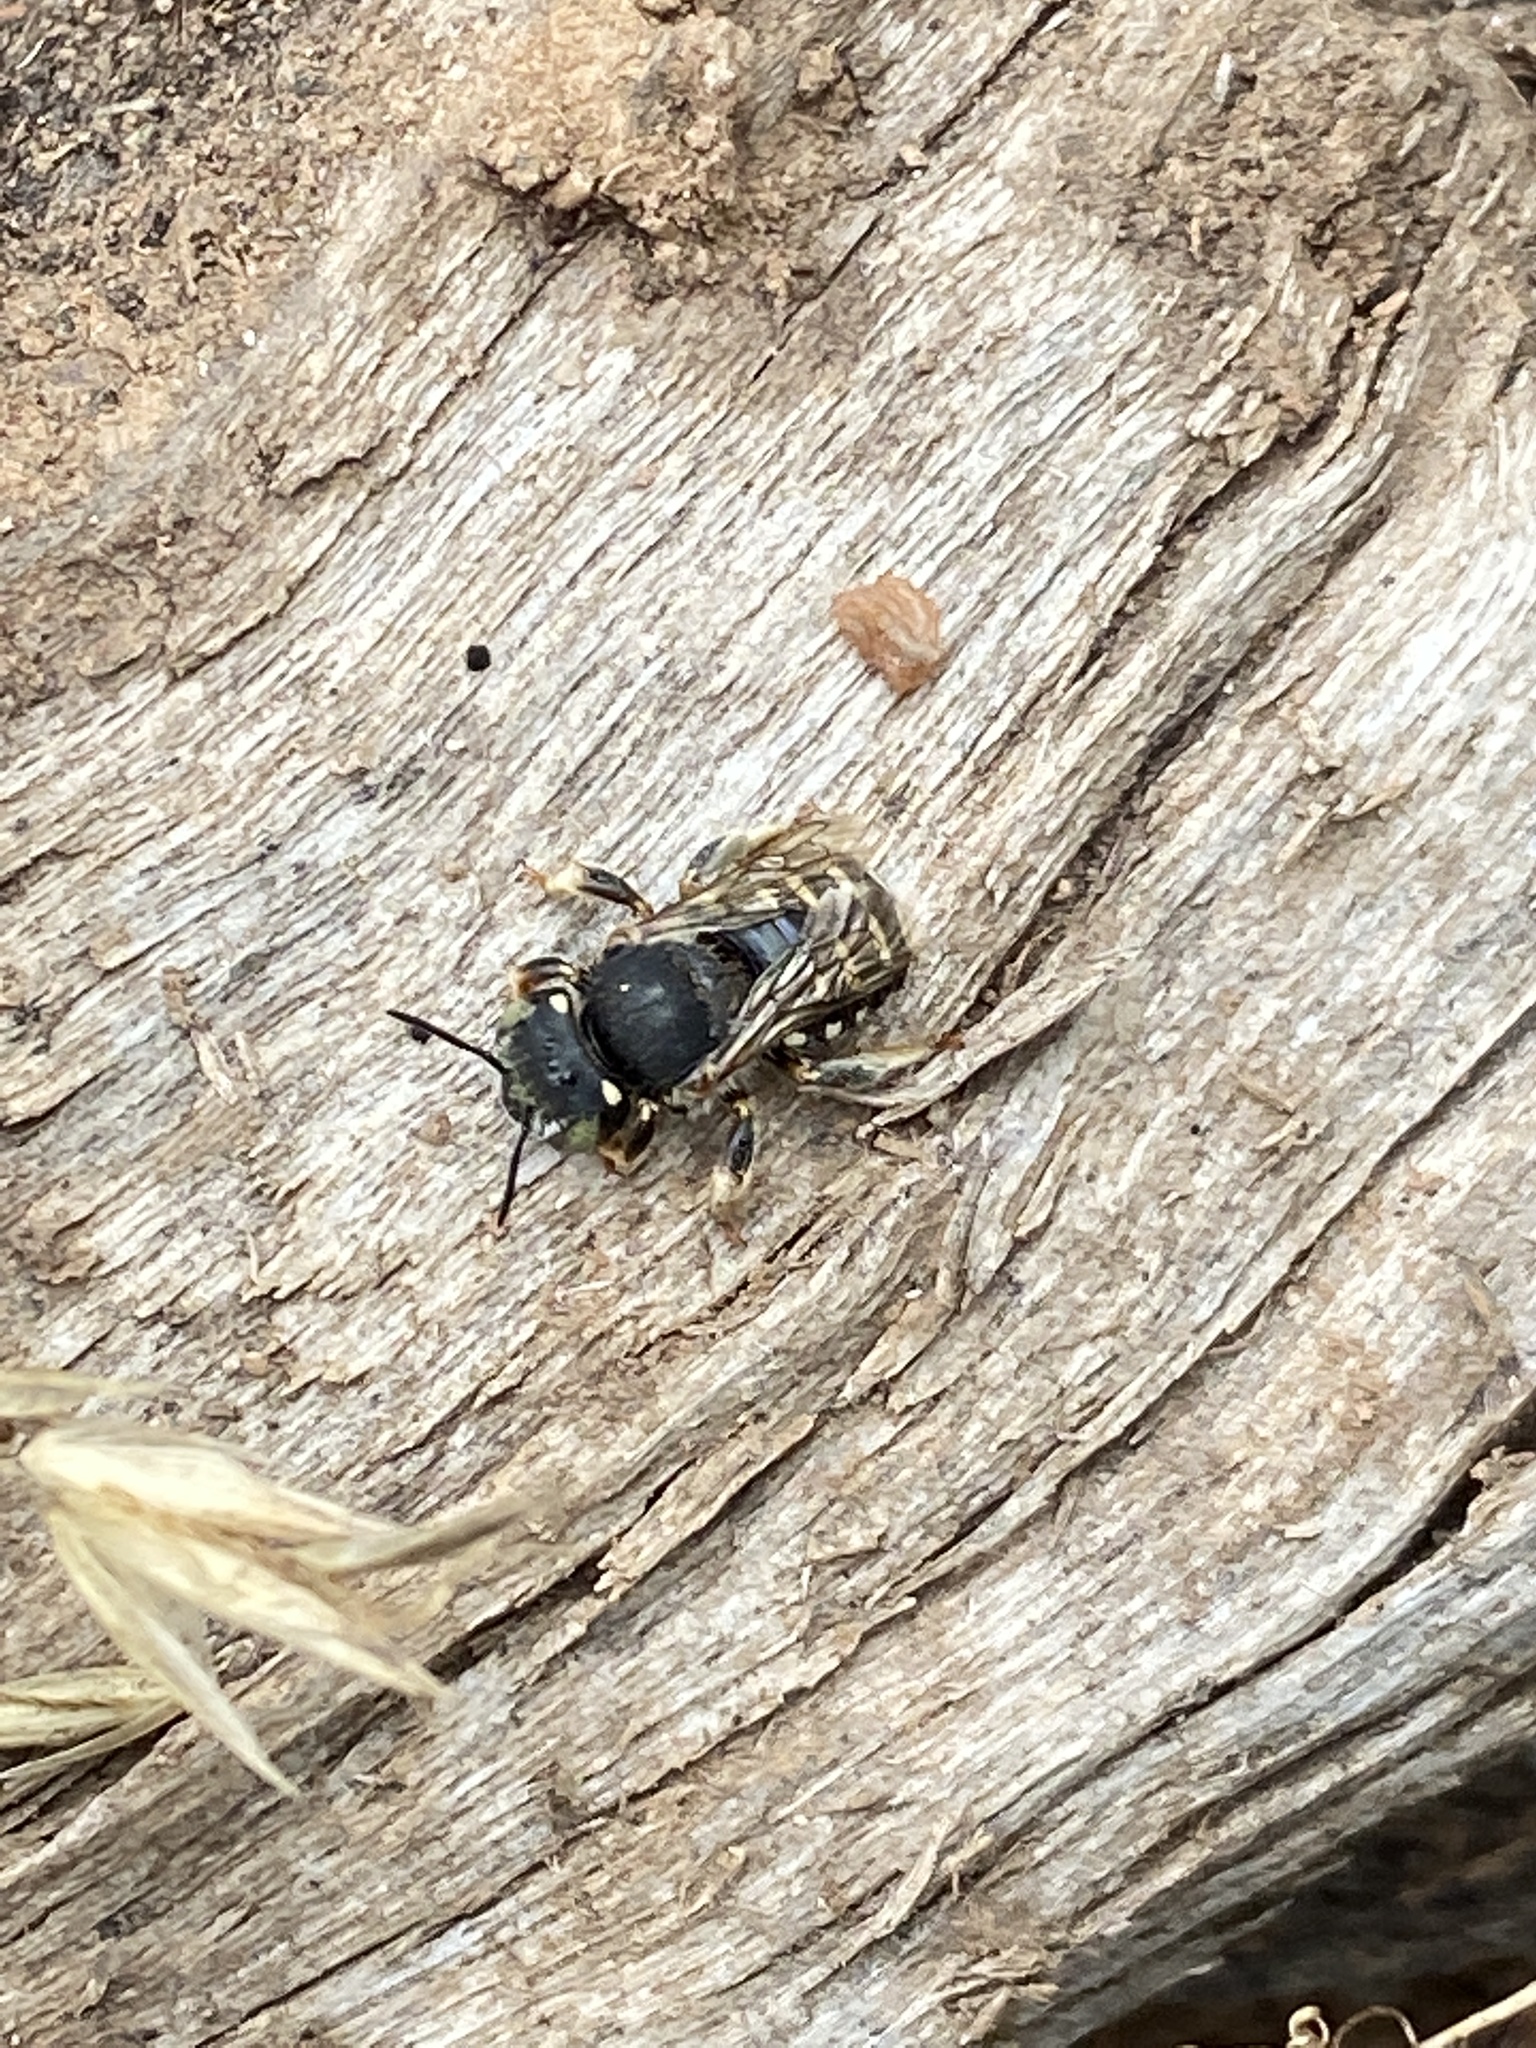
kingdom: Animalia
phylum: Arthropoda
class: Insecta
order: Hymenoptera
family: Megachilidae
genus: Anthidium
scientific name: Anthidium punctatum
